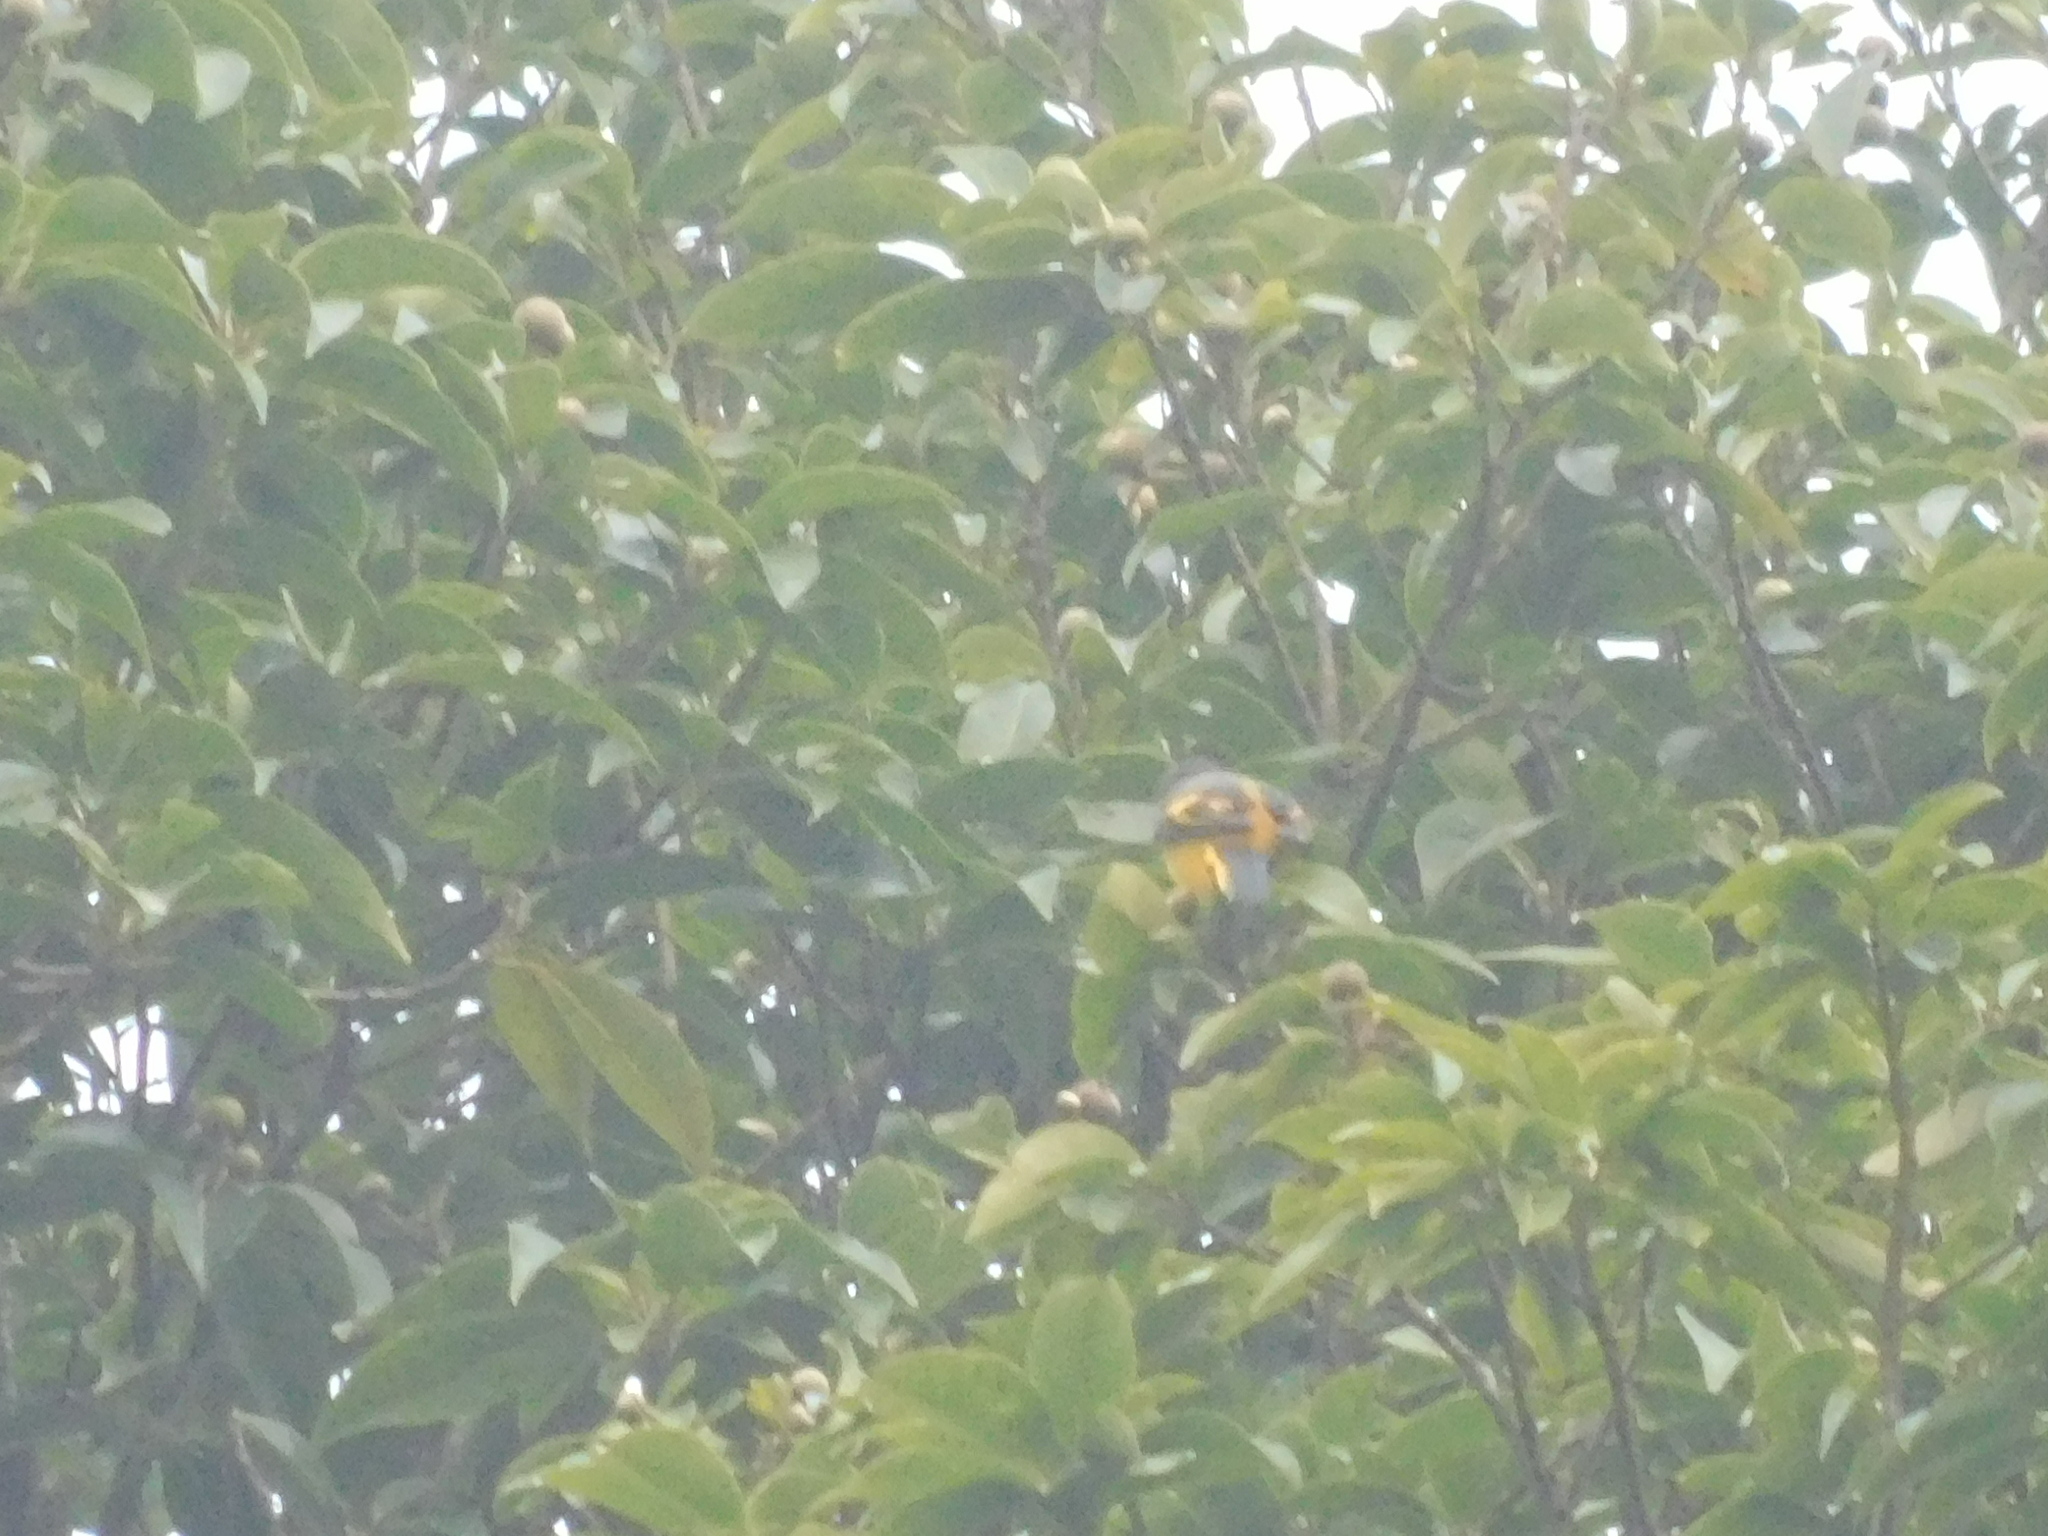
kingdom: Animalia
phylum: Chordata
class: Aves
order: Passeriformes
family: Campephagidae
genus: Pericrocotus
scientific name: Pericrocotus speciosus
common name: Scarlet minivet
